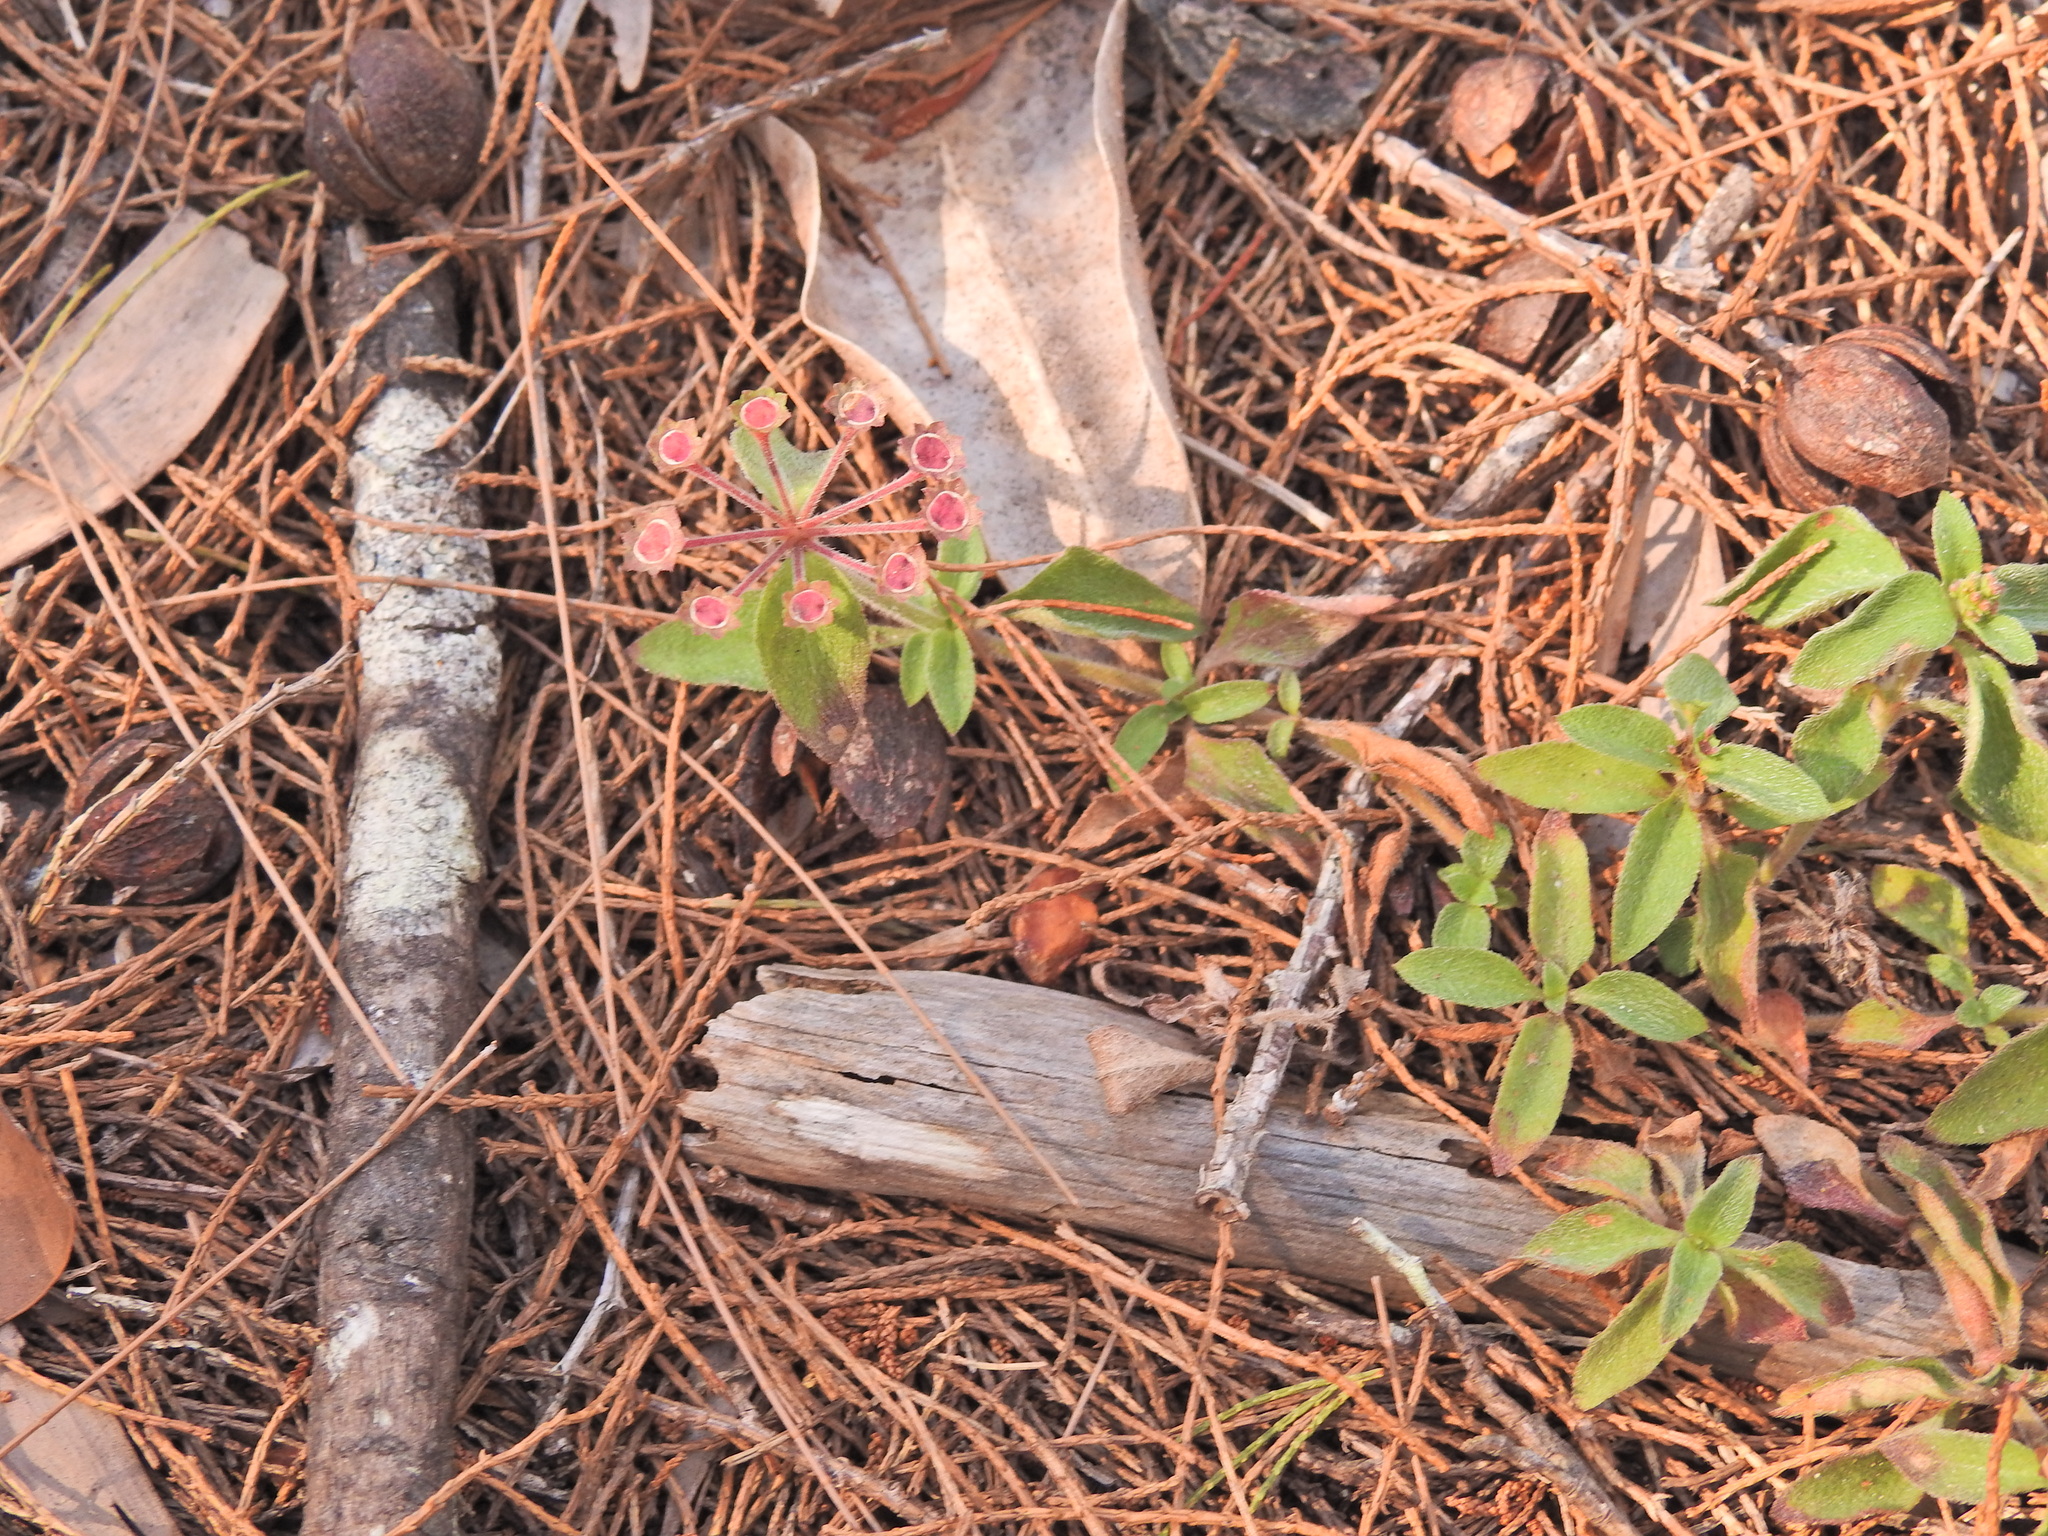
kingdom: Plantae
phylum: Tracheophyta
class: Magnoliopsida
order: Gentianales
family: Rubiaceae
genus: Pomax
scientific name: Pomax umbellata
